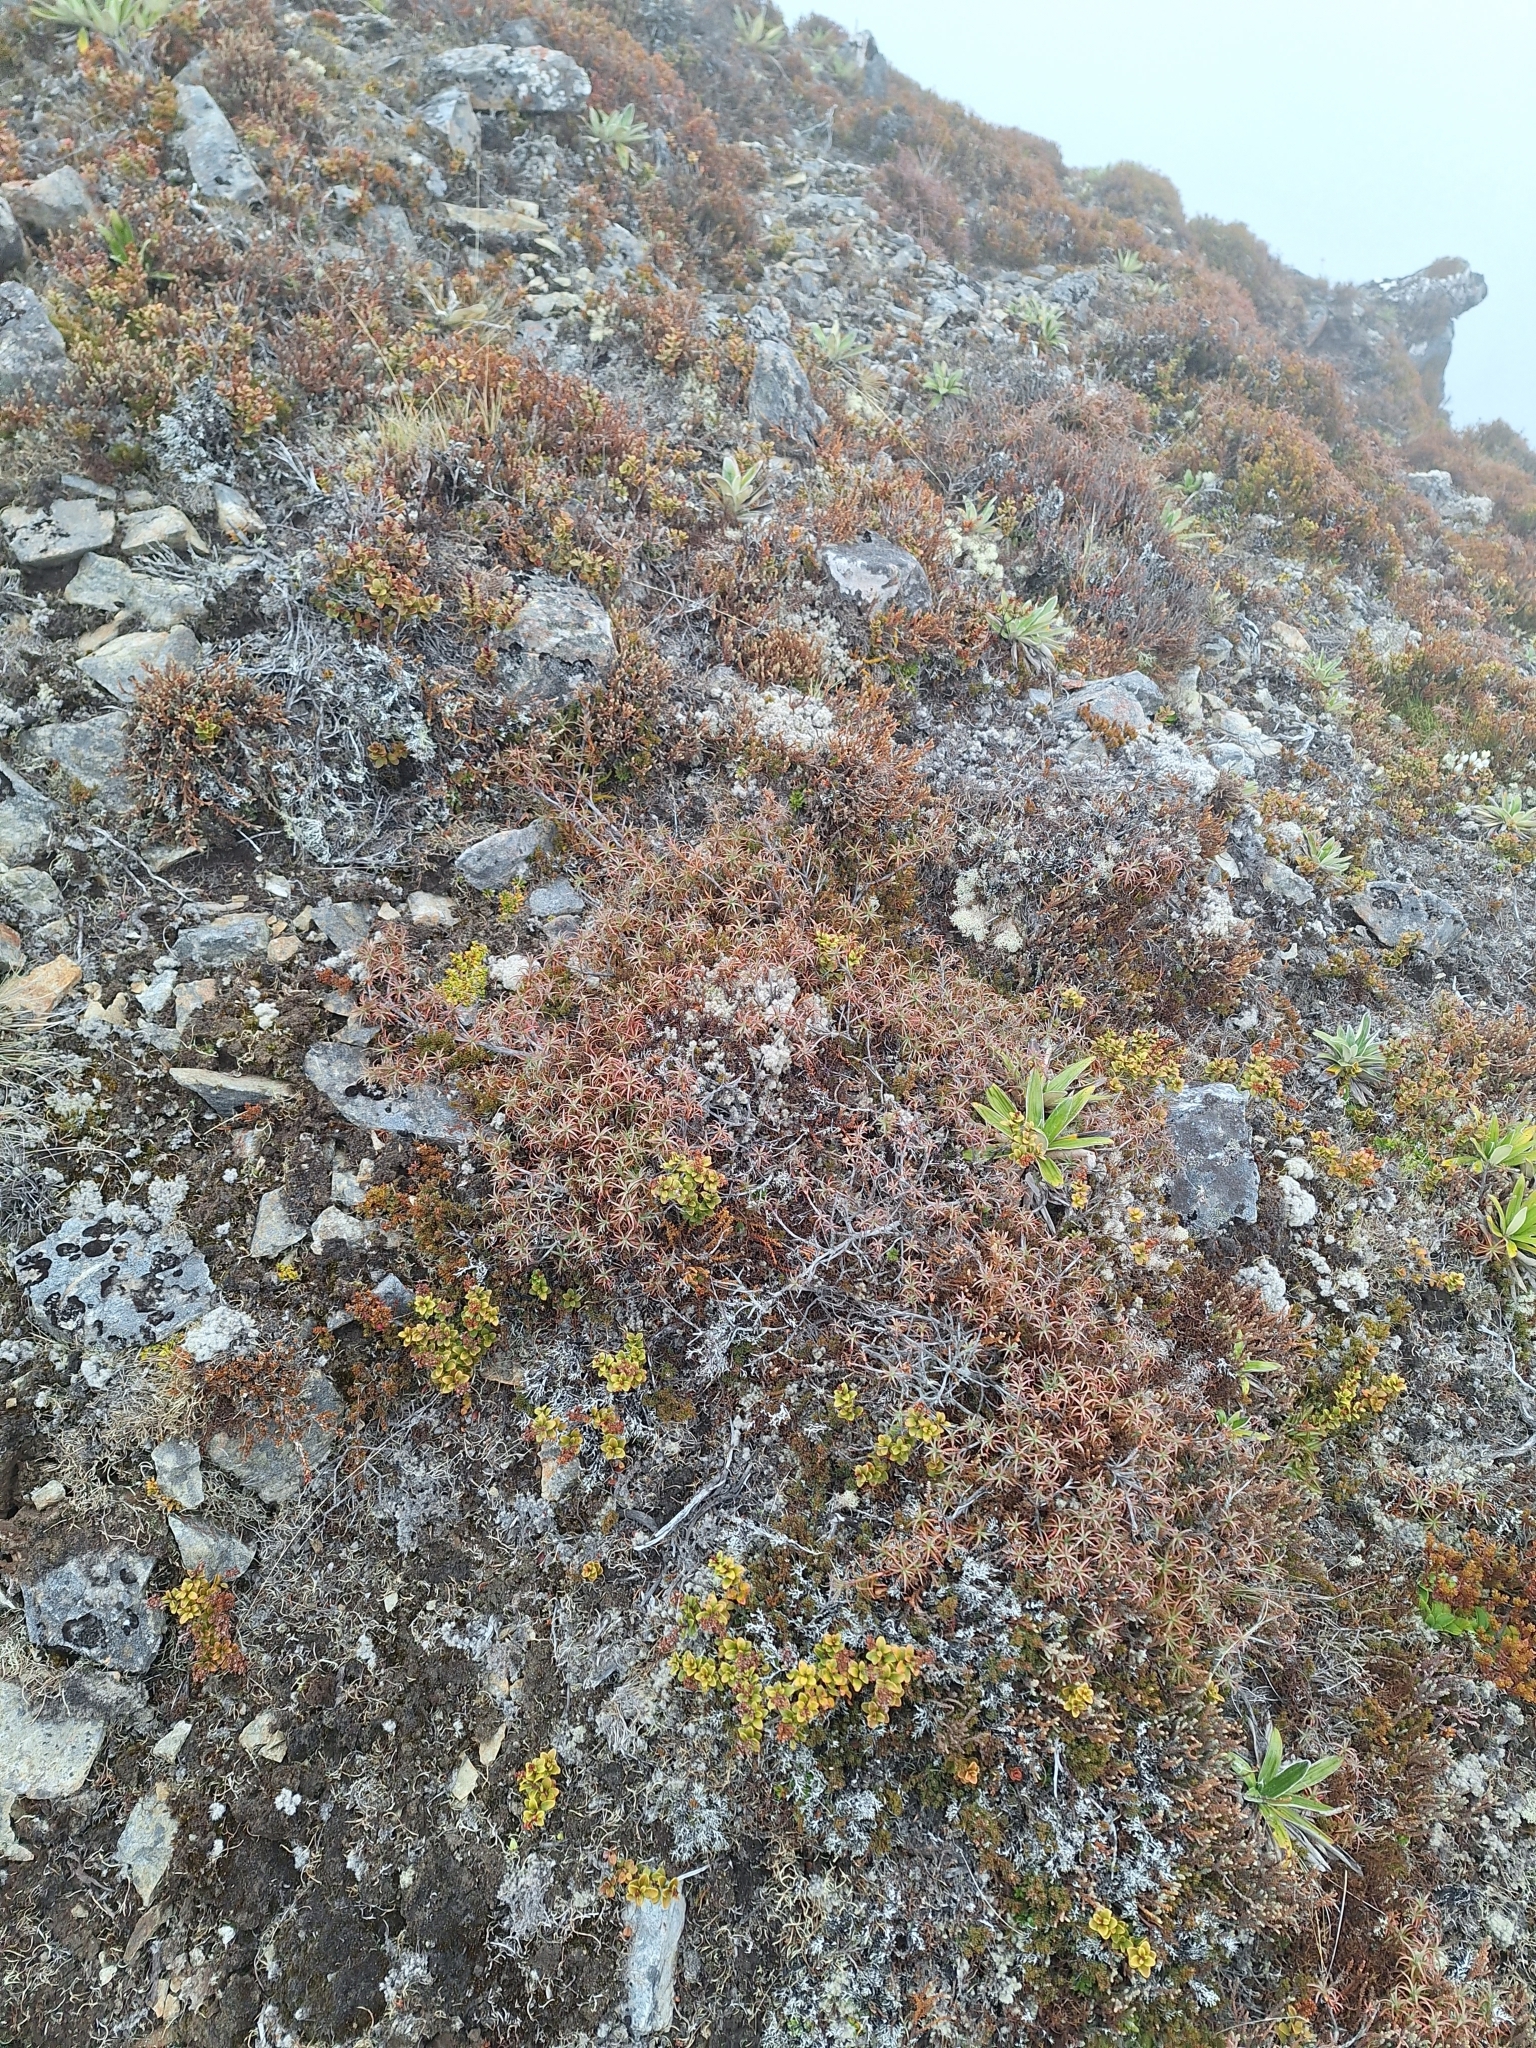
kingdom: Plantae
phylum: Tracheophyta
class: Magnoliopsida
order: Ericales
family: Ericaceae
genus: Dracophyllum
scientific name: Dracophyllum recurvum
